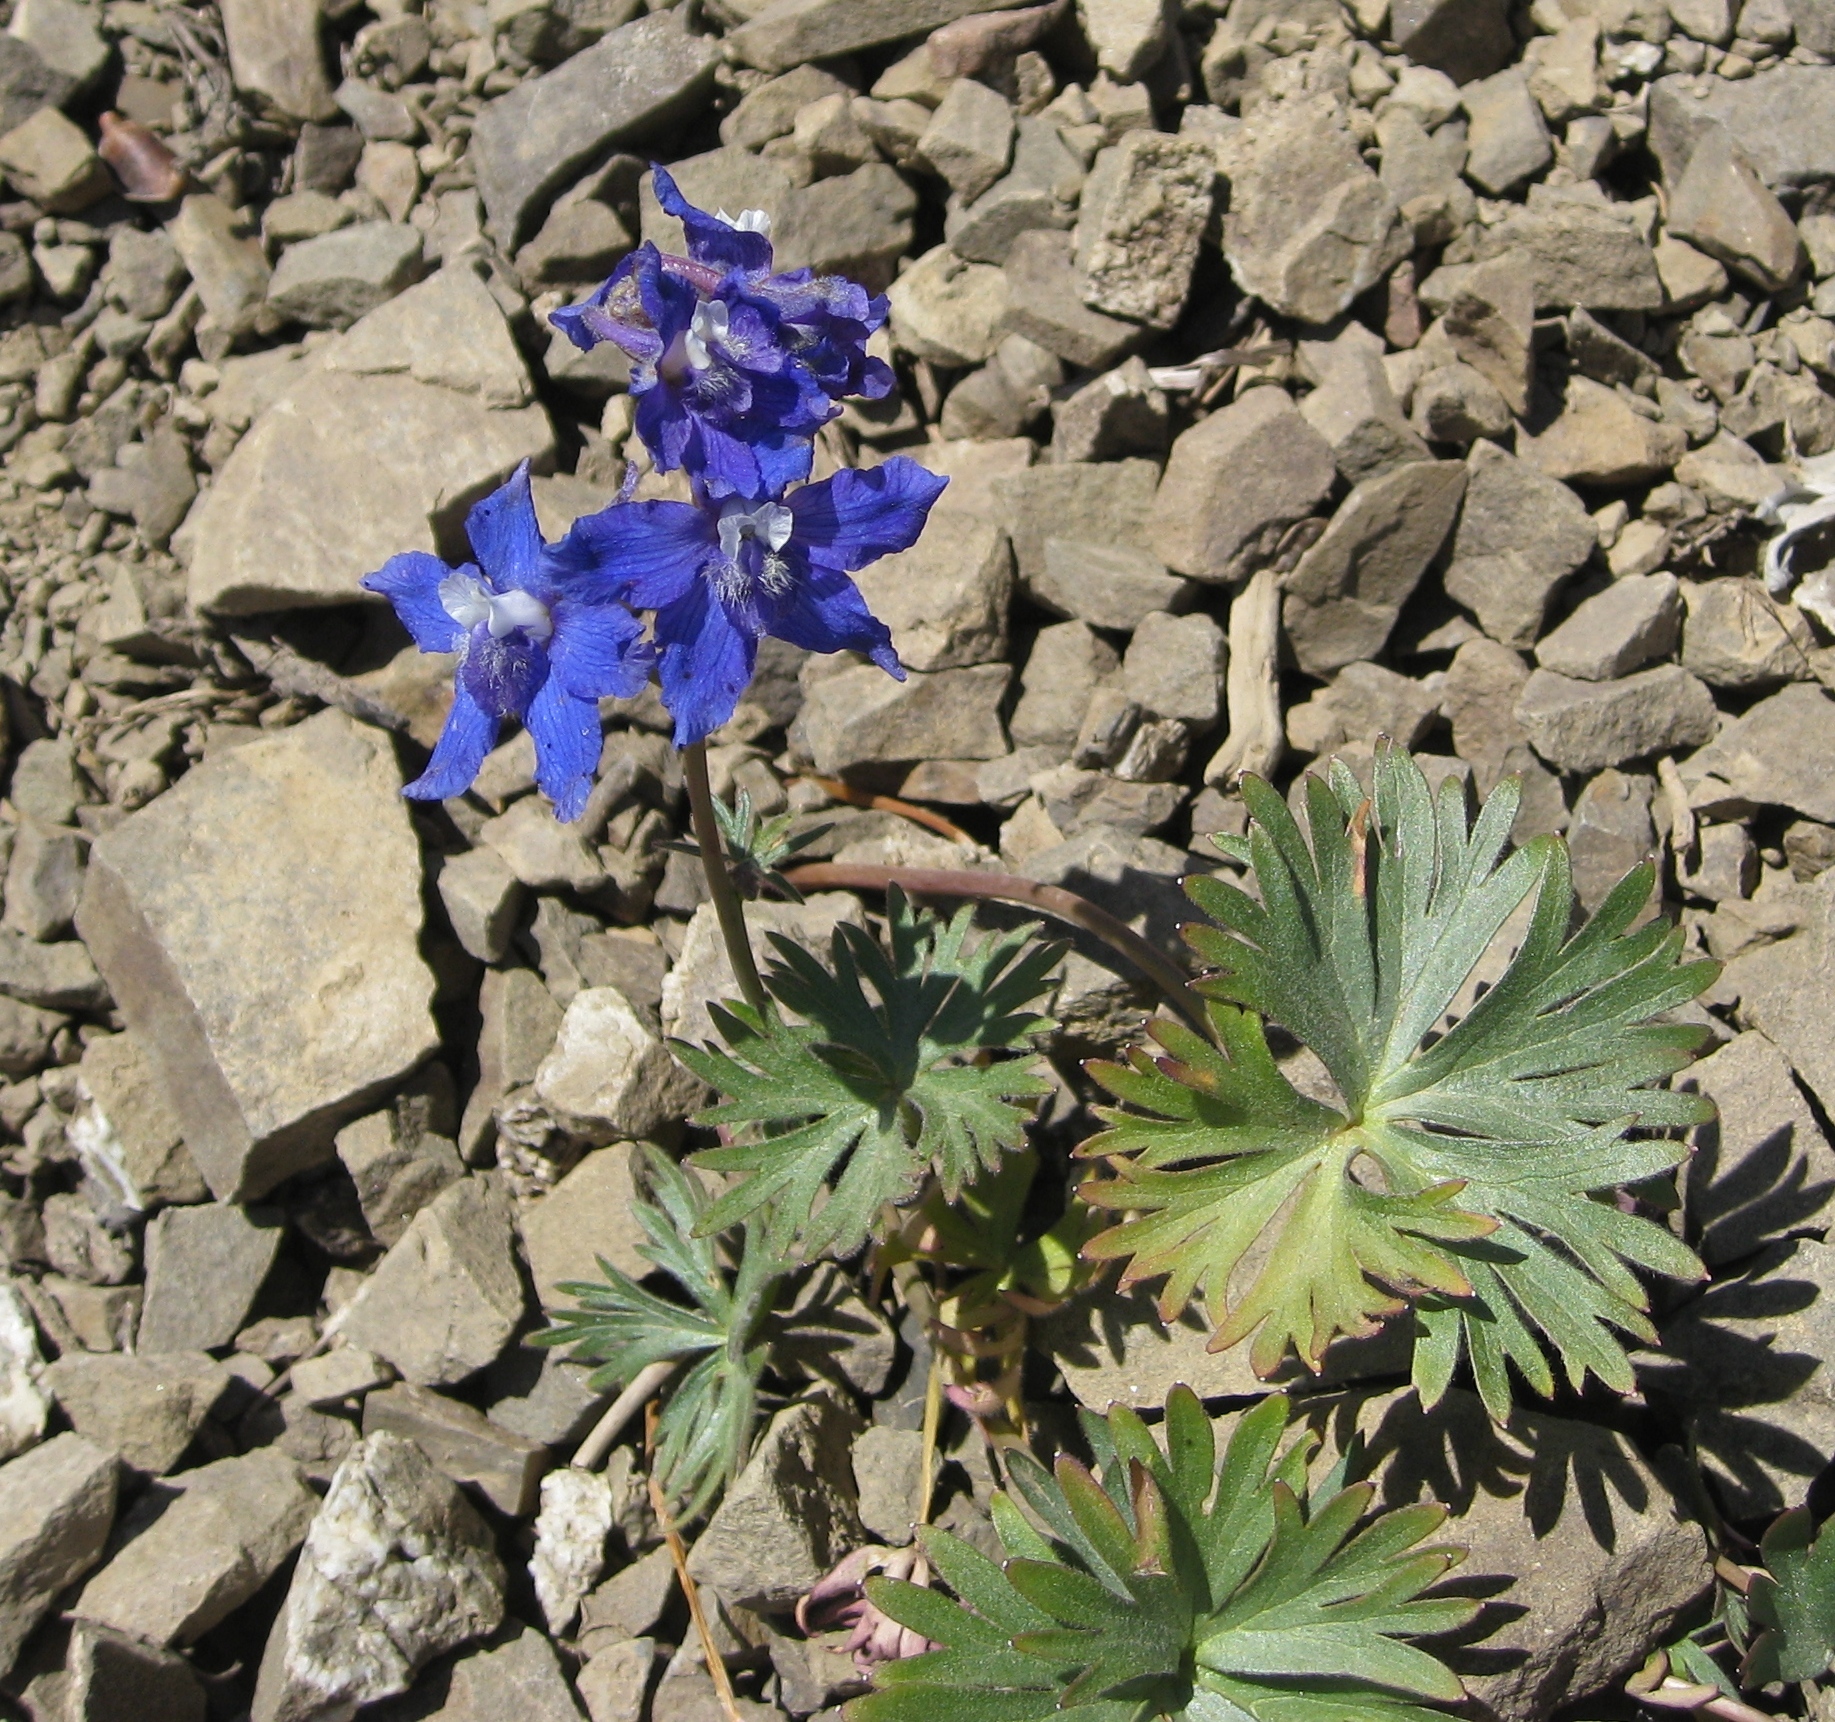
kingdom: Plantae
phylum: Tracheophyta
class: Magnoliopsida
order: Ranunculales
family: Ranunculaceae
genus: Delphinium
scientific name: Delphinium glareosum
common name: Olympic mountain larkspur
